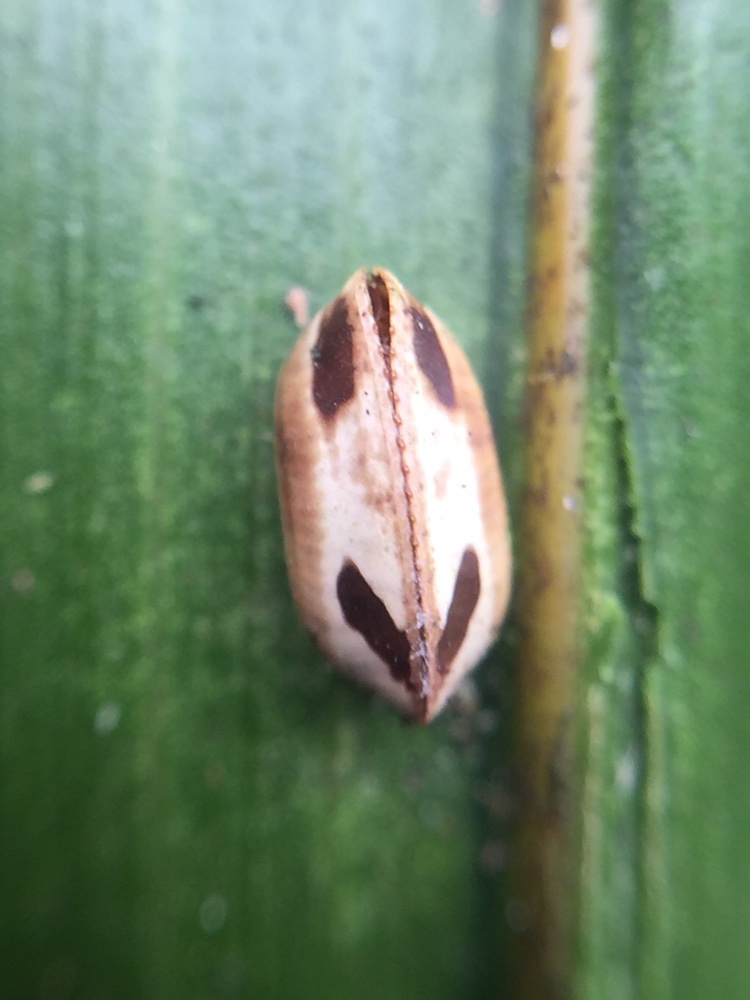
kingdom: Animalia
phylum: Arthropoda
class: Insecta
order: Blattodea
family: Ectobiidae
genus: Balta
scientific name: Balta bicolor
